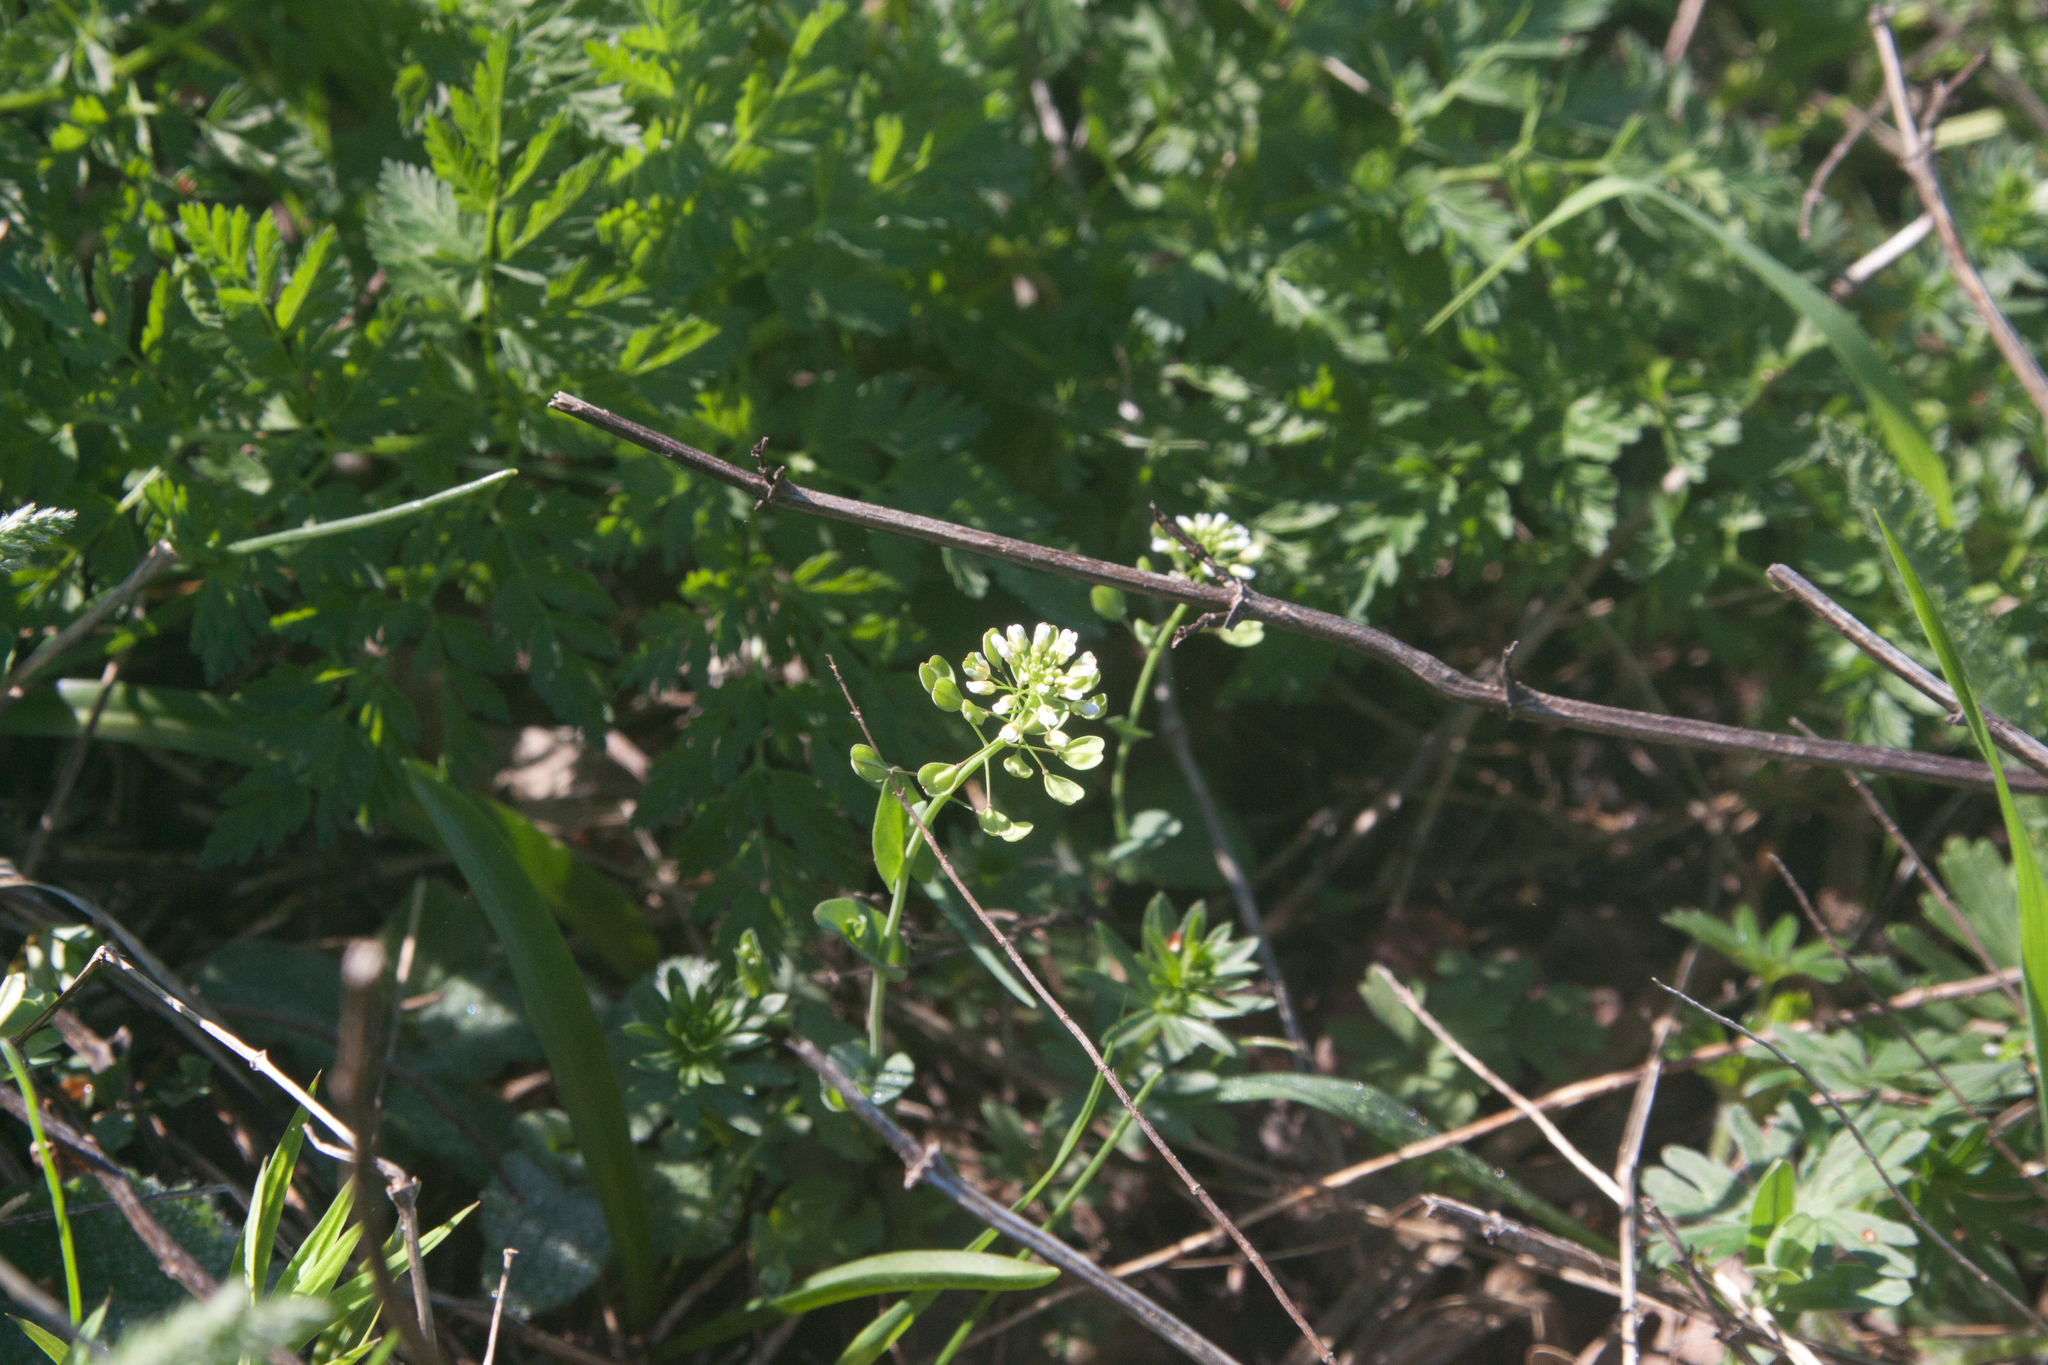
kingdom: Plantae
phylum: Tracheophyta
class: Magnoliopsida
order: Brassicales
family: Brassicaceae
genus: Noccaea
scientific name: Noccaea perfoliata
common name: Perfoliate pennycress
